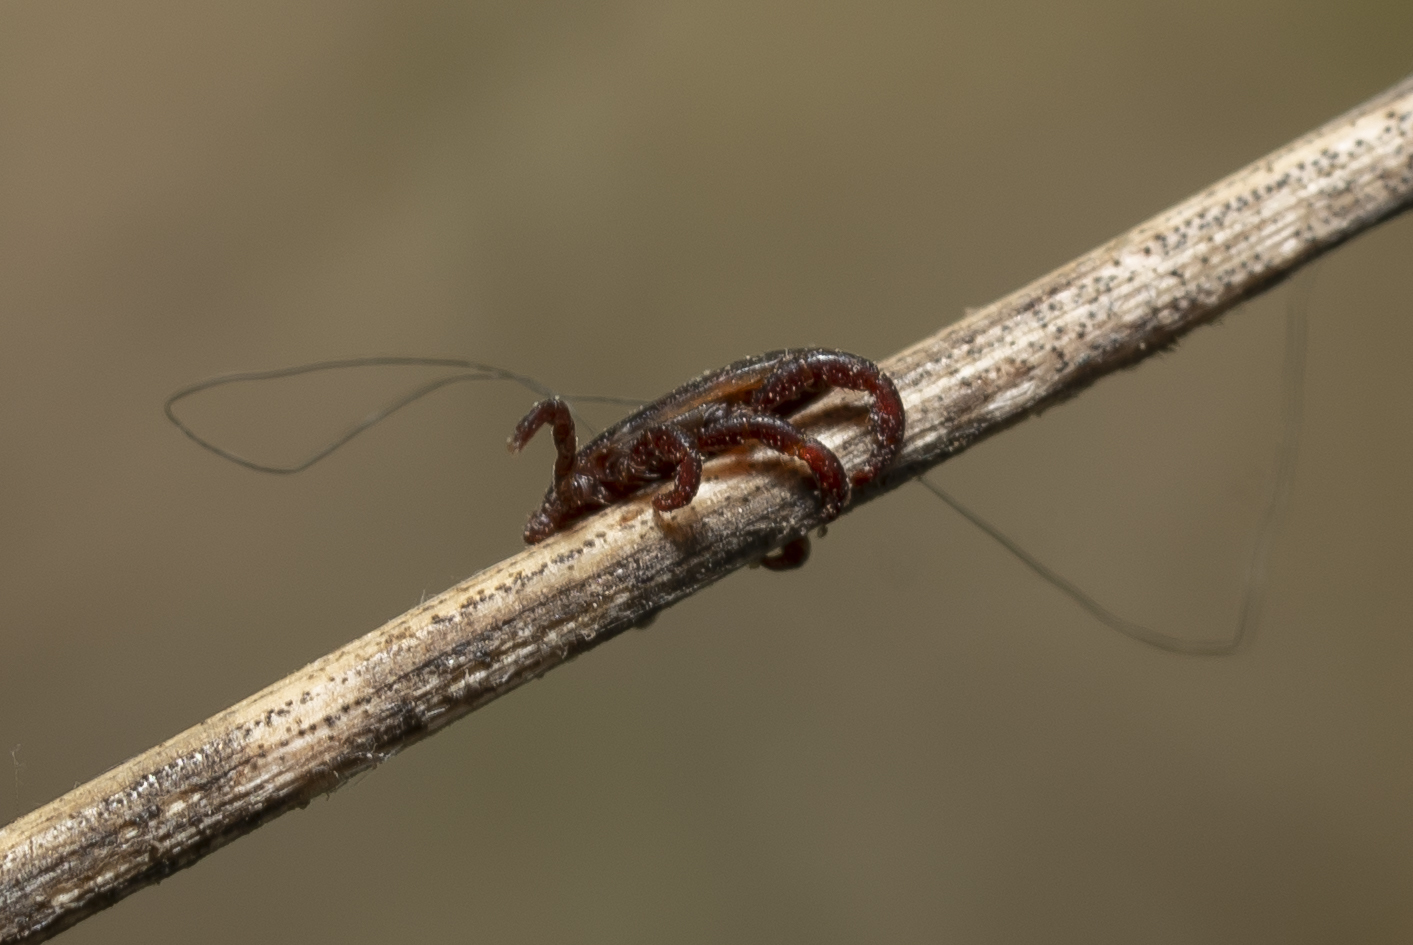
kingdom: Animalia
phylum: Arthropoda
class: Arachnida
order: Ixodida
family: Ixodidae
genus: Rhipicephalus
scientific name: Rhipicephalus sanguineus
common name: Brown dog tick
